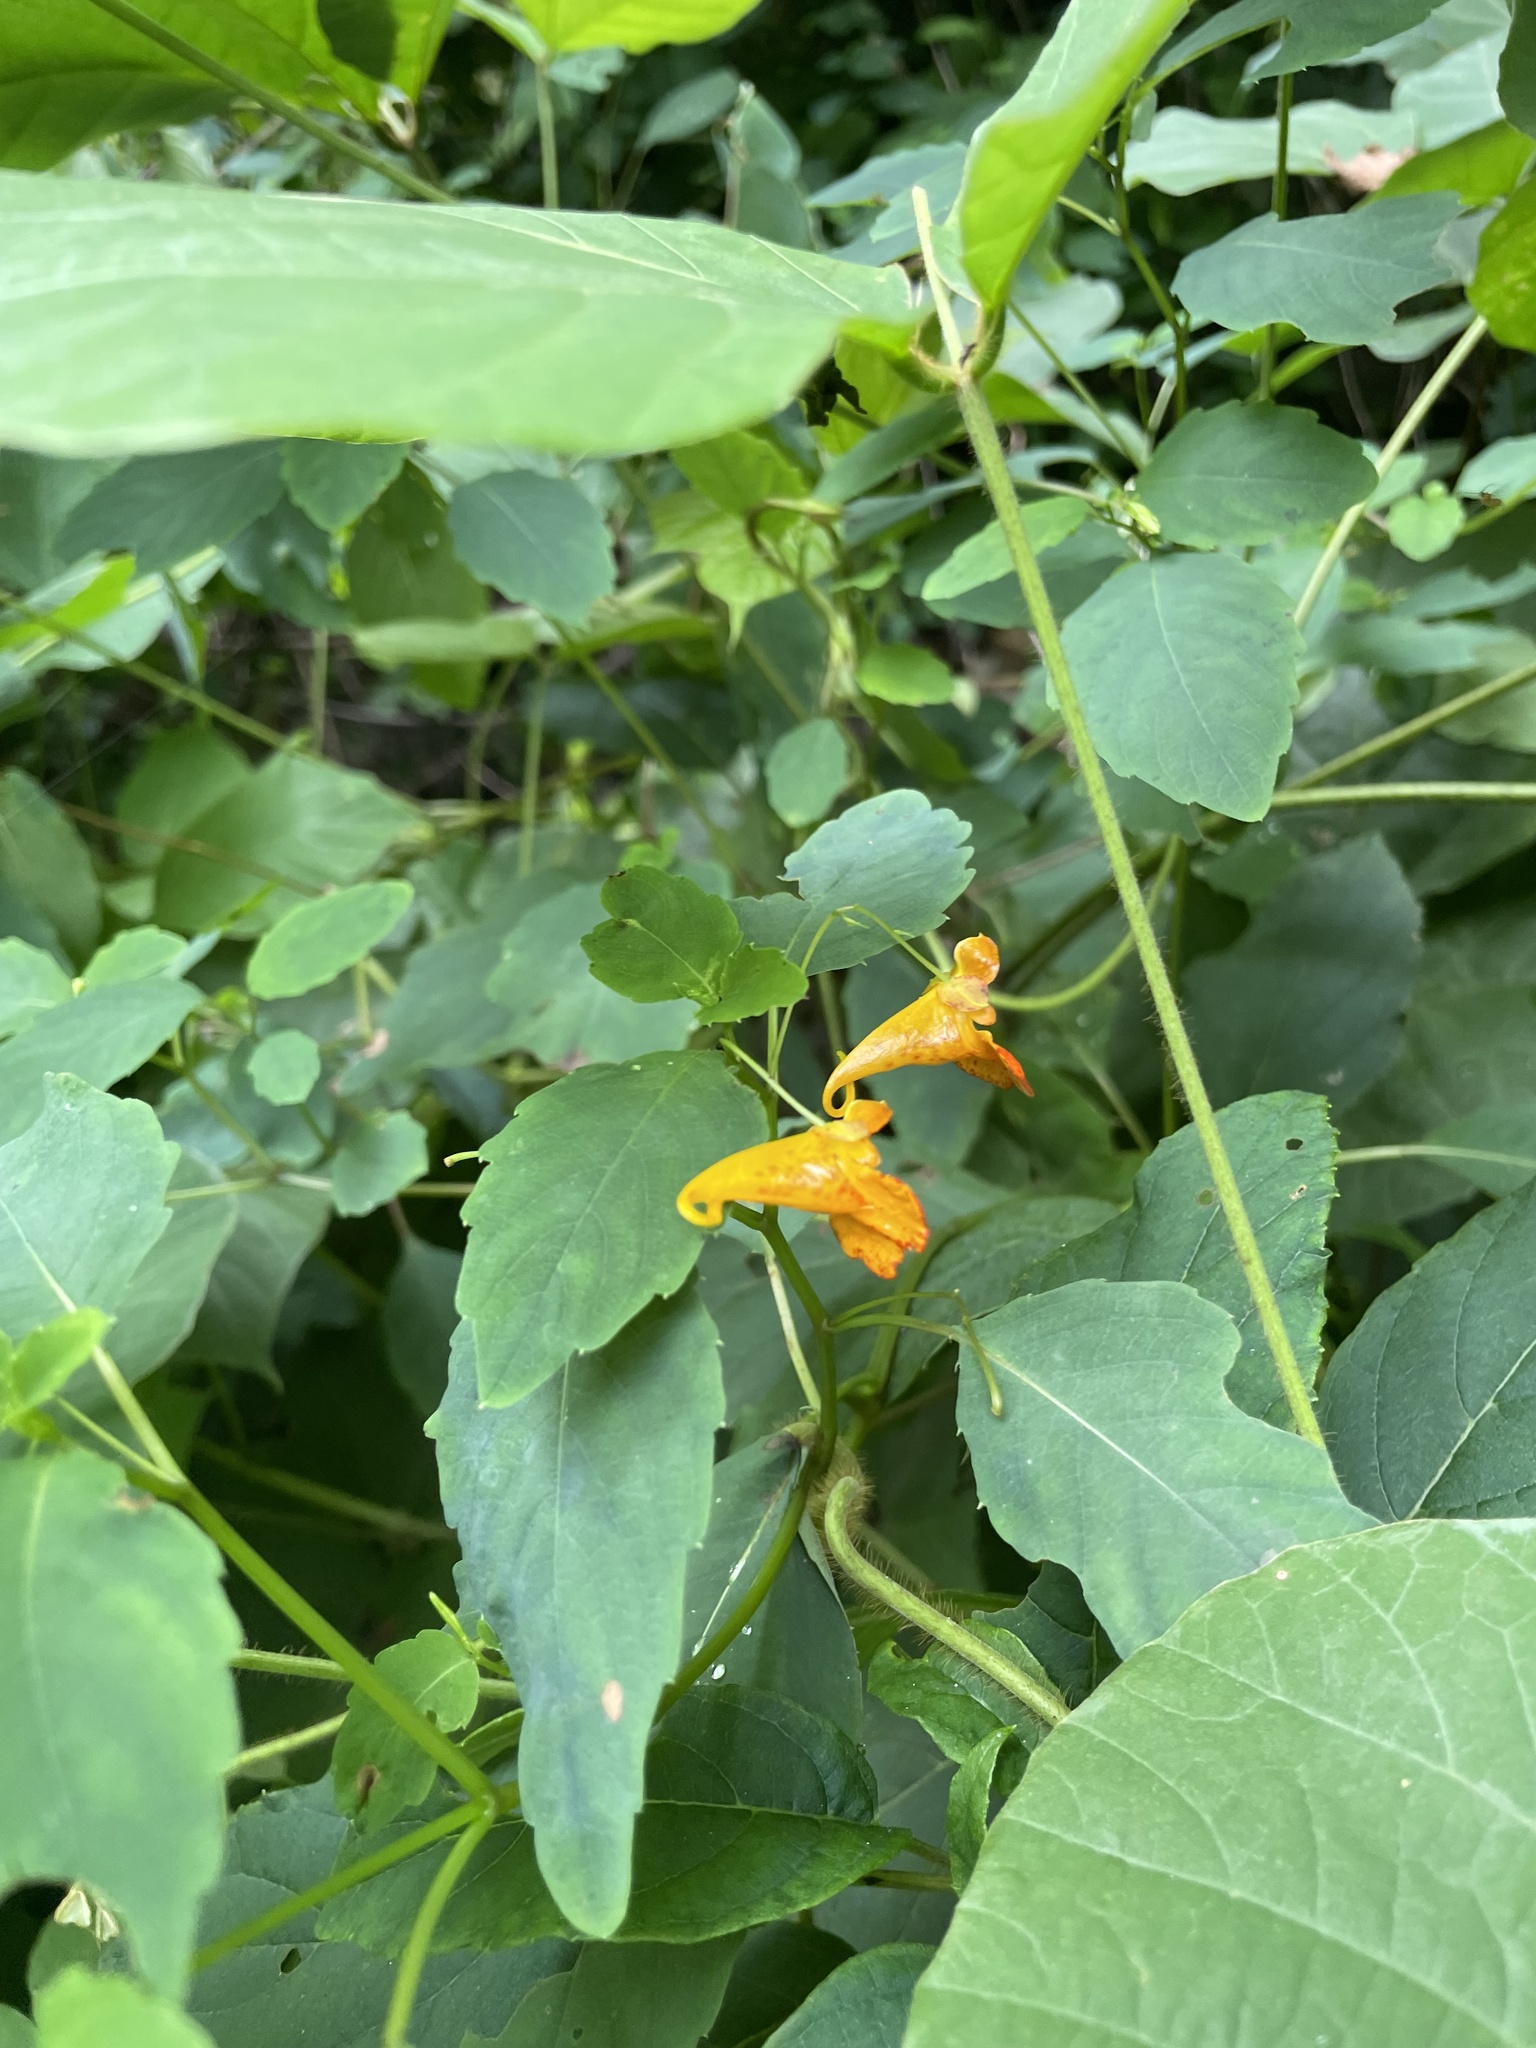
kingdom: Plantae
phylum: Tracheophyta
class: Magnoliopsida
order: Ericales
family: Balsaminaceae
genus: Impatiens
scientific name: Impatiens capensis
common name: Orange balsam
